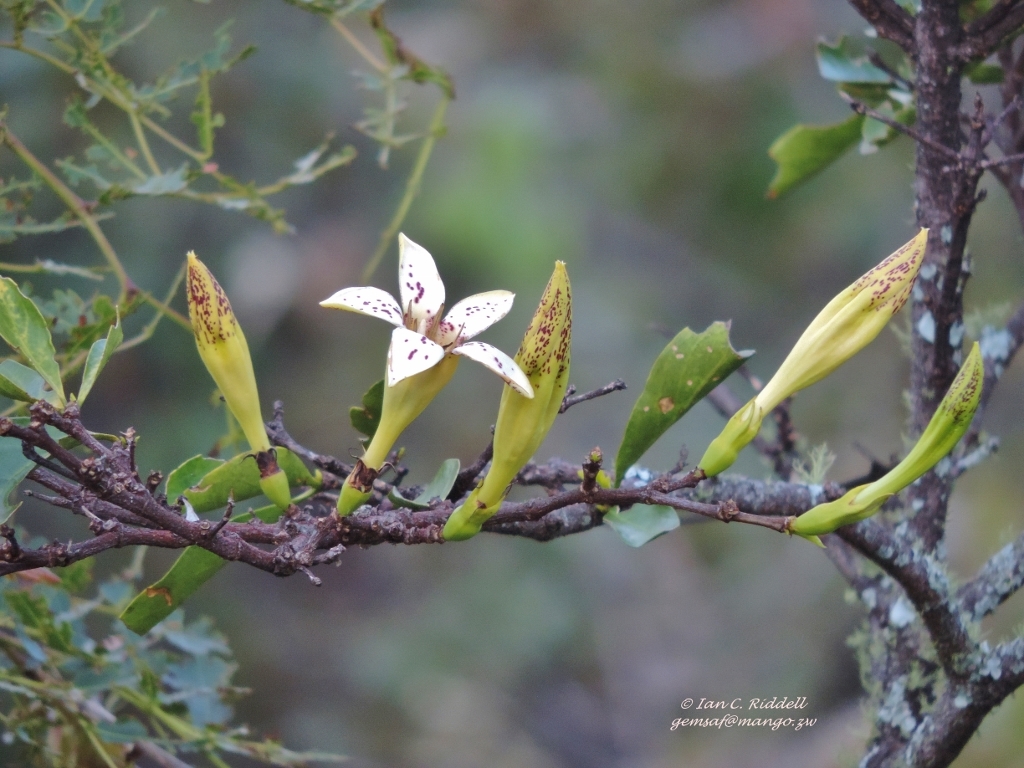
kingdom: Plantae
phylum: Tracheophyta
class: Magnoliopsida
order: Gentianales
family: Rubiaceae
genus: Rothmannia
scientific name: Rothmannia fischeri
